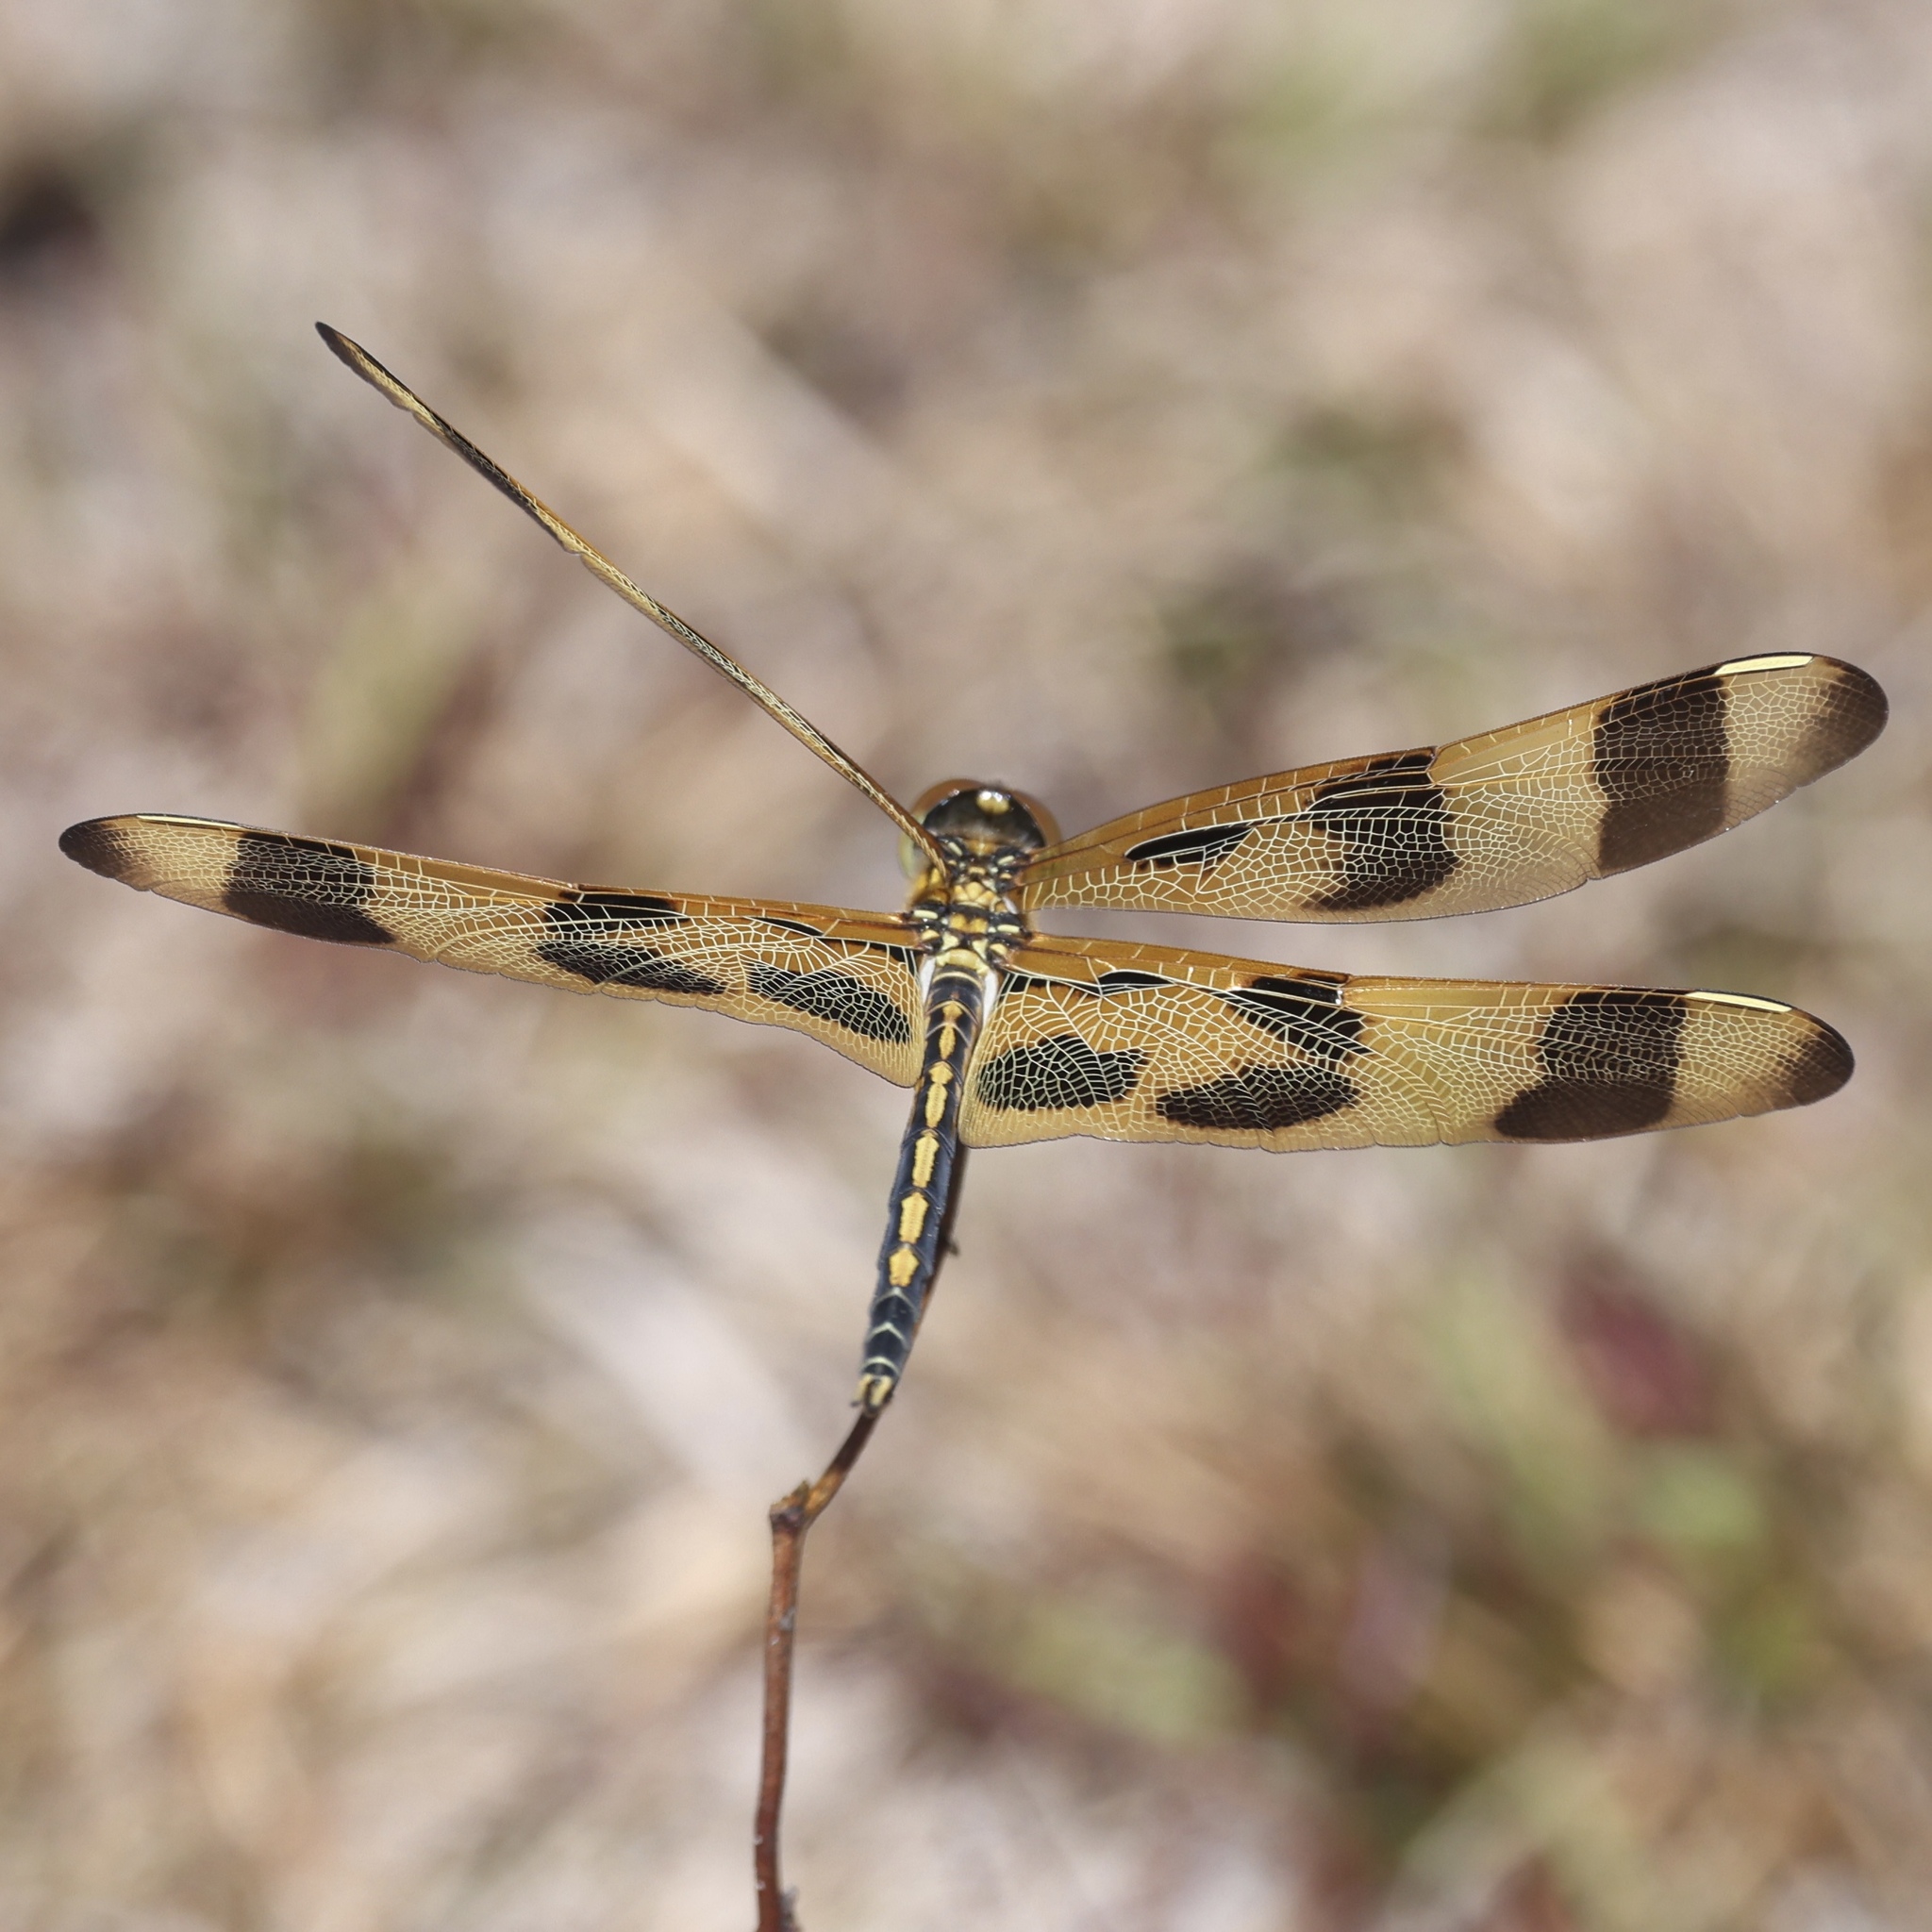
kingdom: Animalia
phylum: Arthropoda
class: Insecta
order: Odonata
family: Libellulidae
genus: Celithemis
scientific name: Celithemis eponina
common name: Halloween pennant
